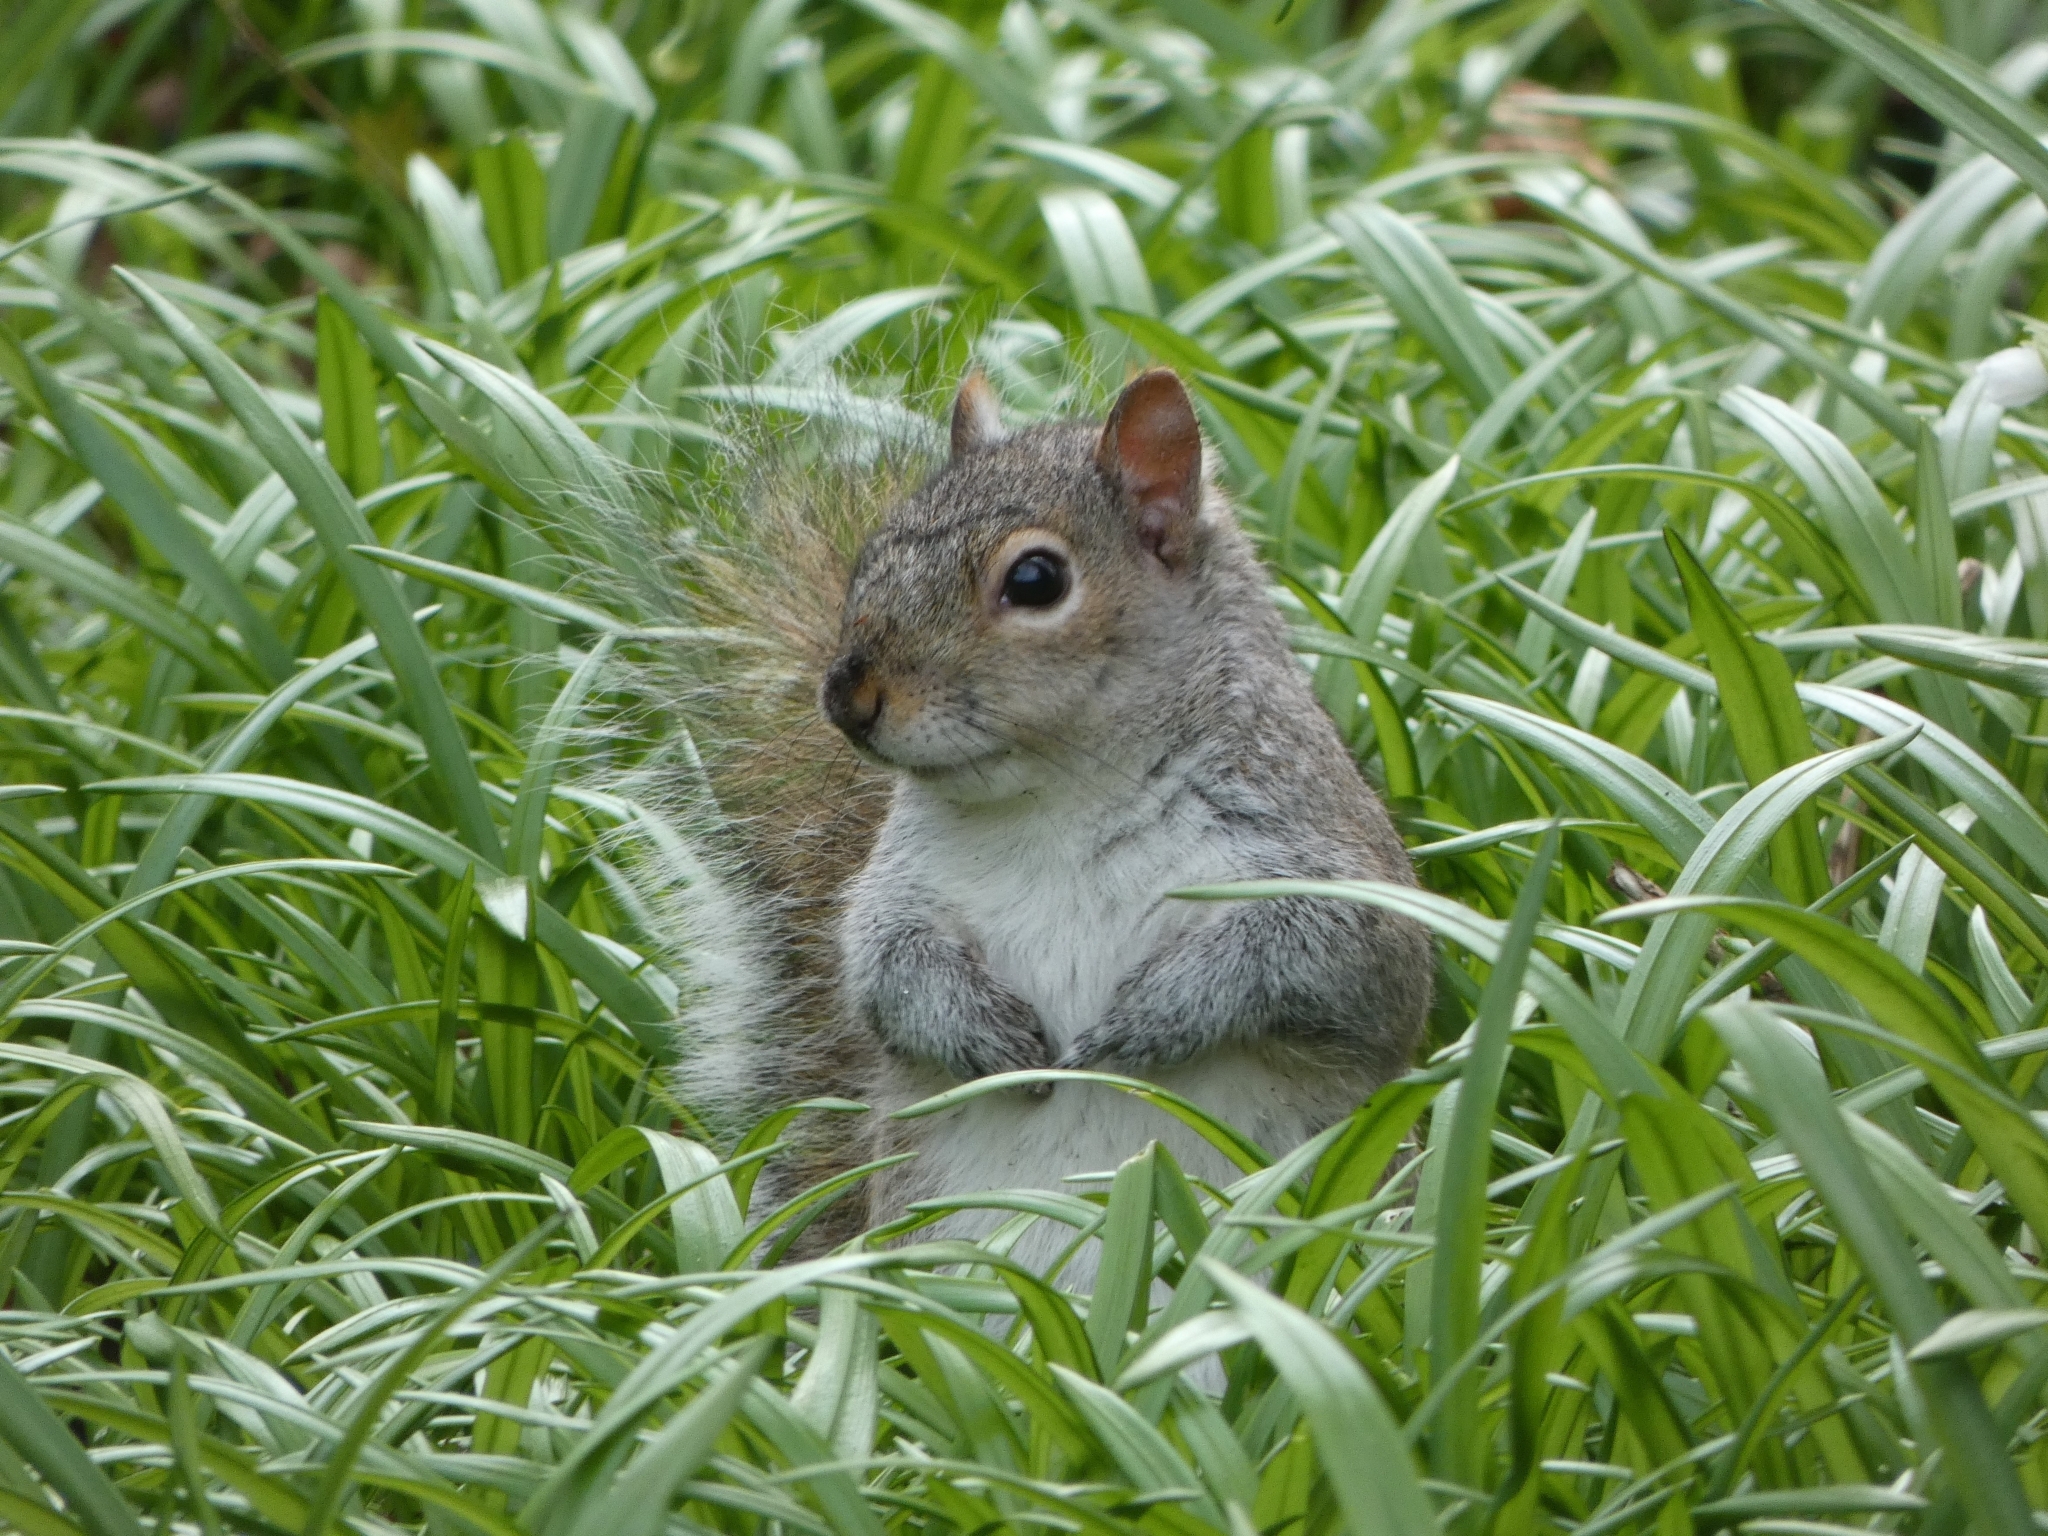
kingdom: Animalia
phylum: Chordata
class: Mammalia
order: Rodentia
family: Sciuridae
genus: Sciurus
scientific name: Sciurus carolinensis
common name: Eastern gray squirrel
